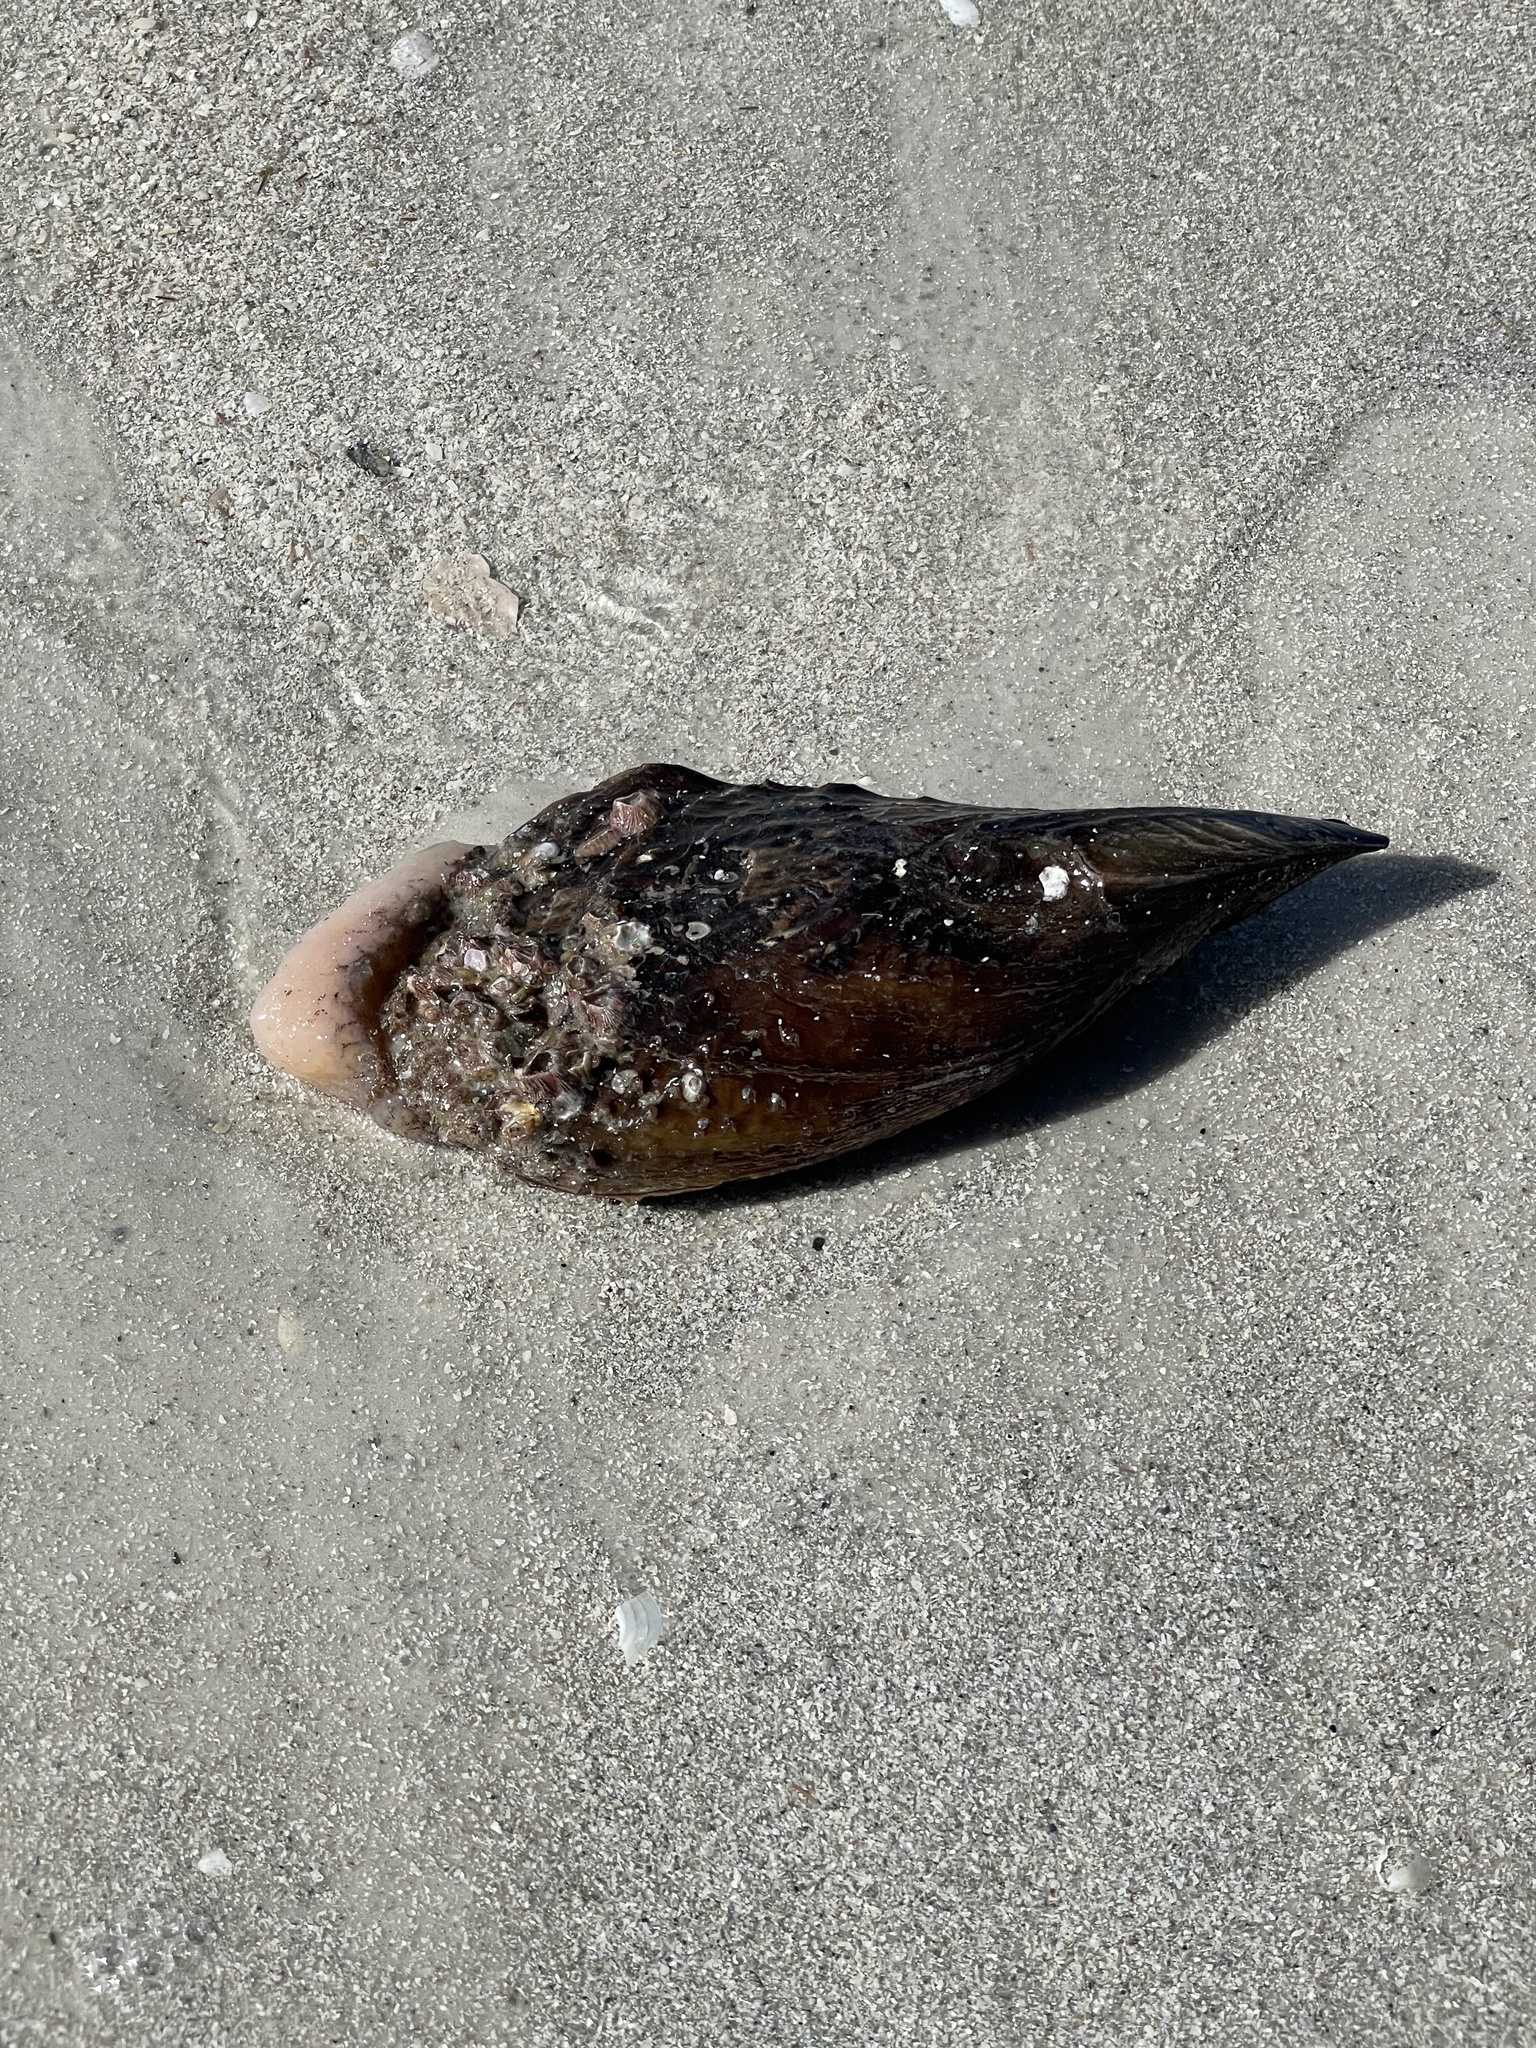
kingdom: Animalia
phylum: Mollusca
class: Bivalvia
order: Ostreida
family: Pinnidae
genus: Atrina
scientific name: Atrina rigida
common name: Stiff penshell
